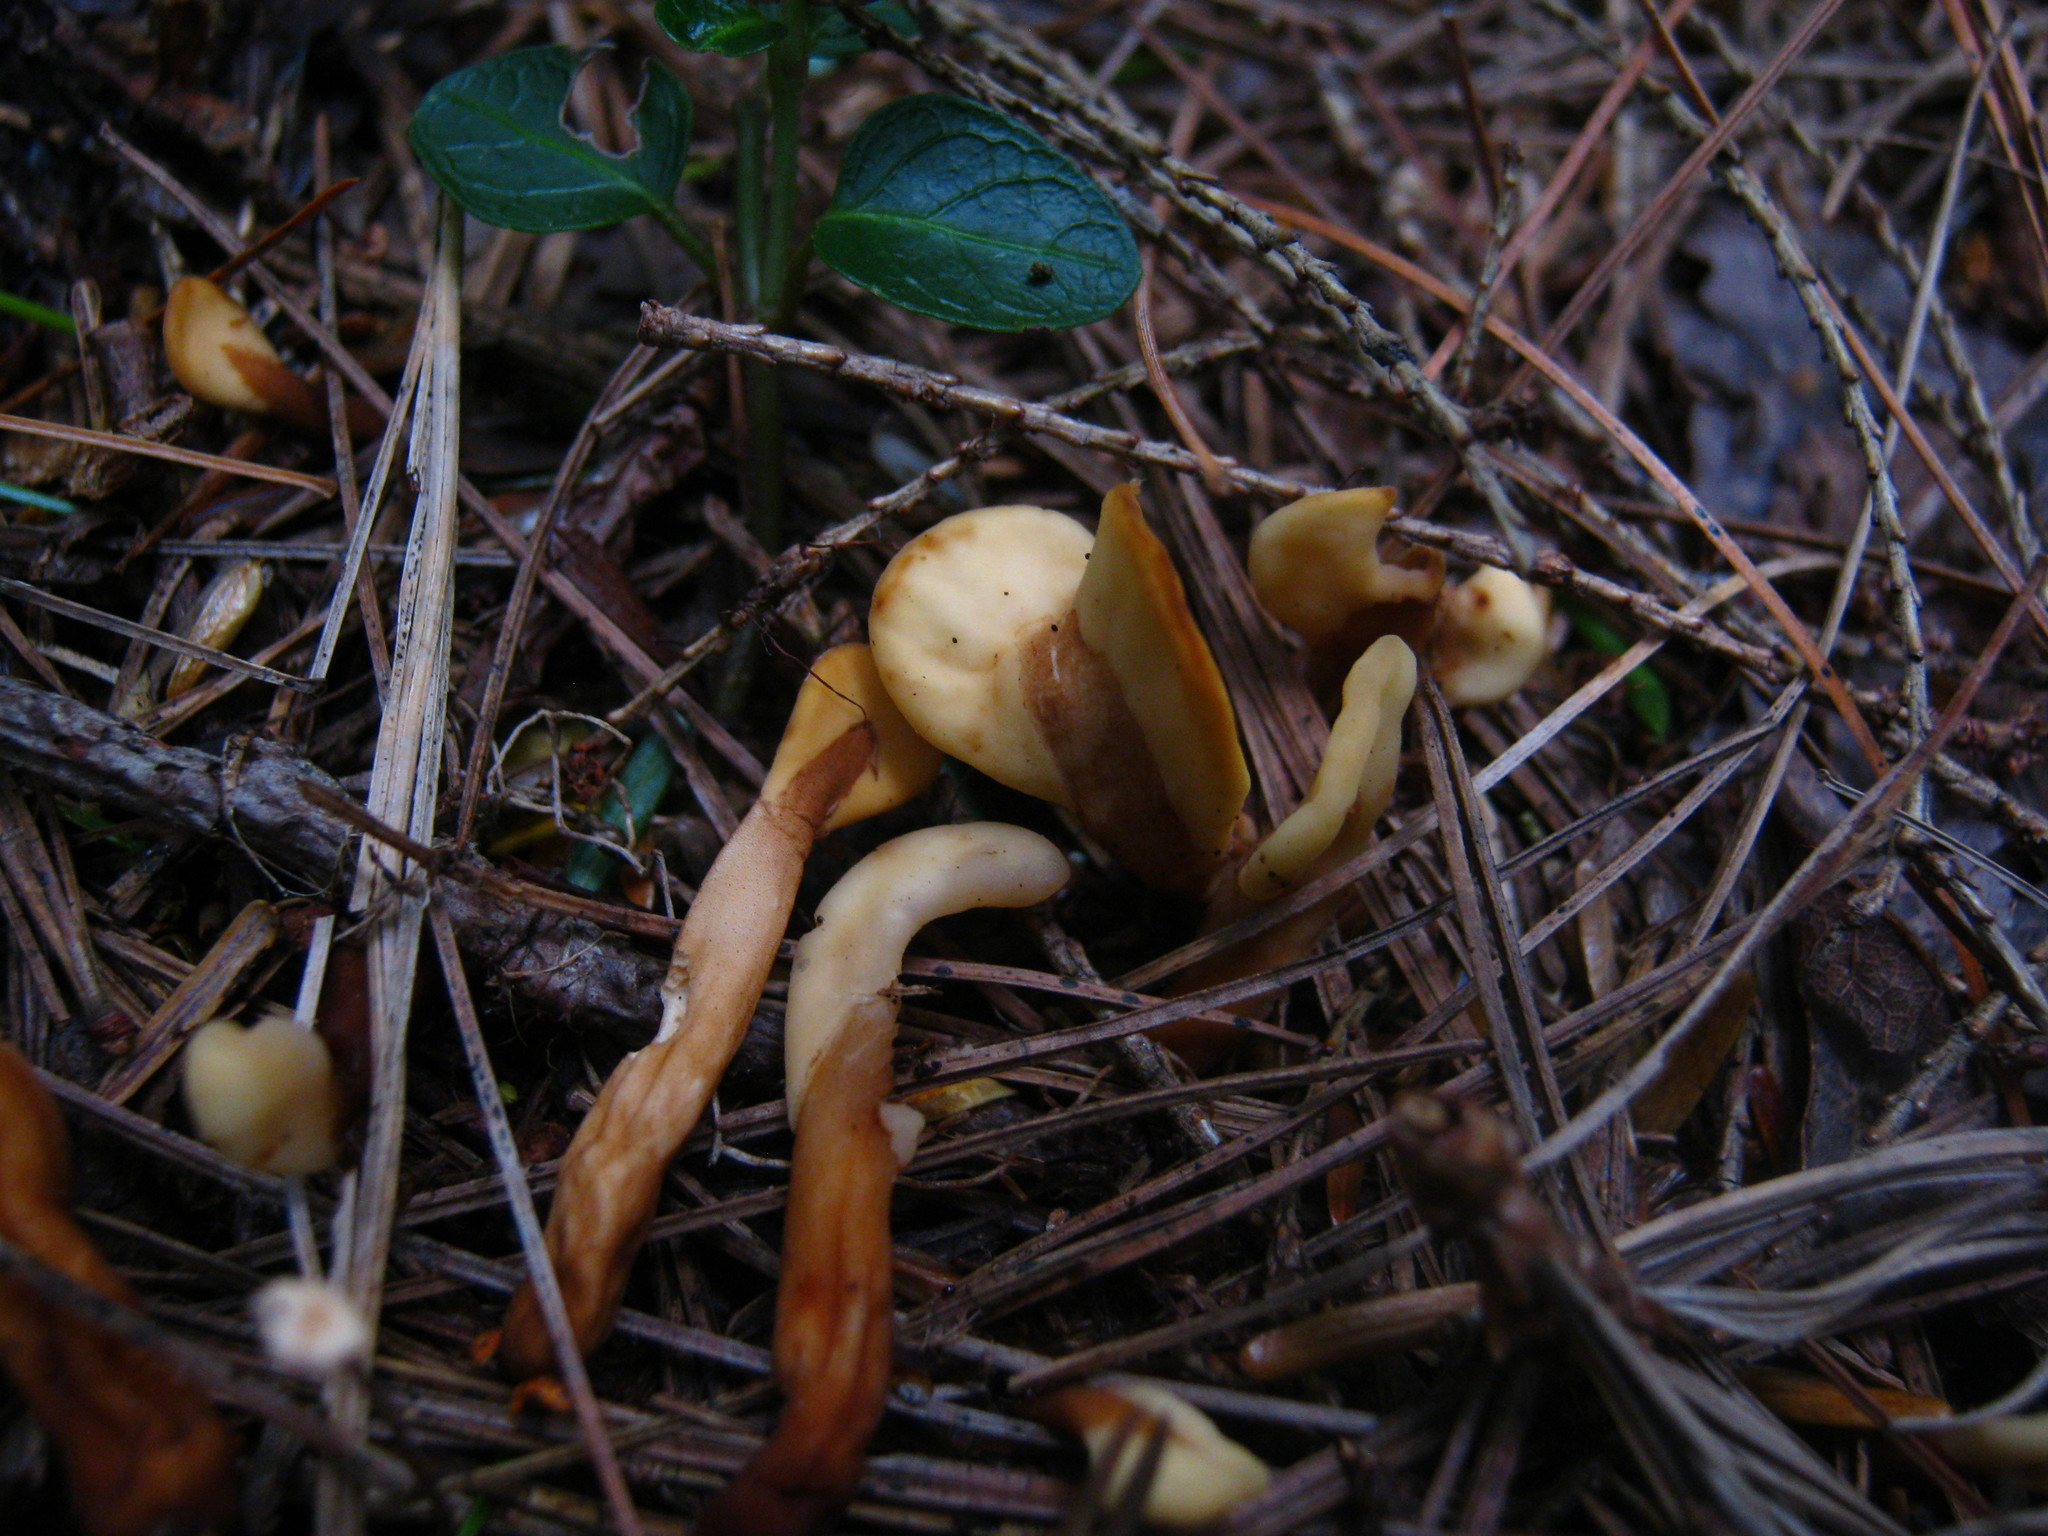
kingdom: Fungi
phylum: Ascomycota
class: Leotiomycetes
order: Rhytismatales
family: Cudoniaceae
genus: Spathulariopsis
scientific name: Spathulariopsis velutipes
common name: Velvet-foot fairy fan
